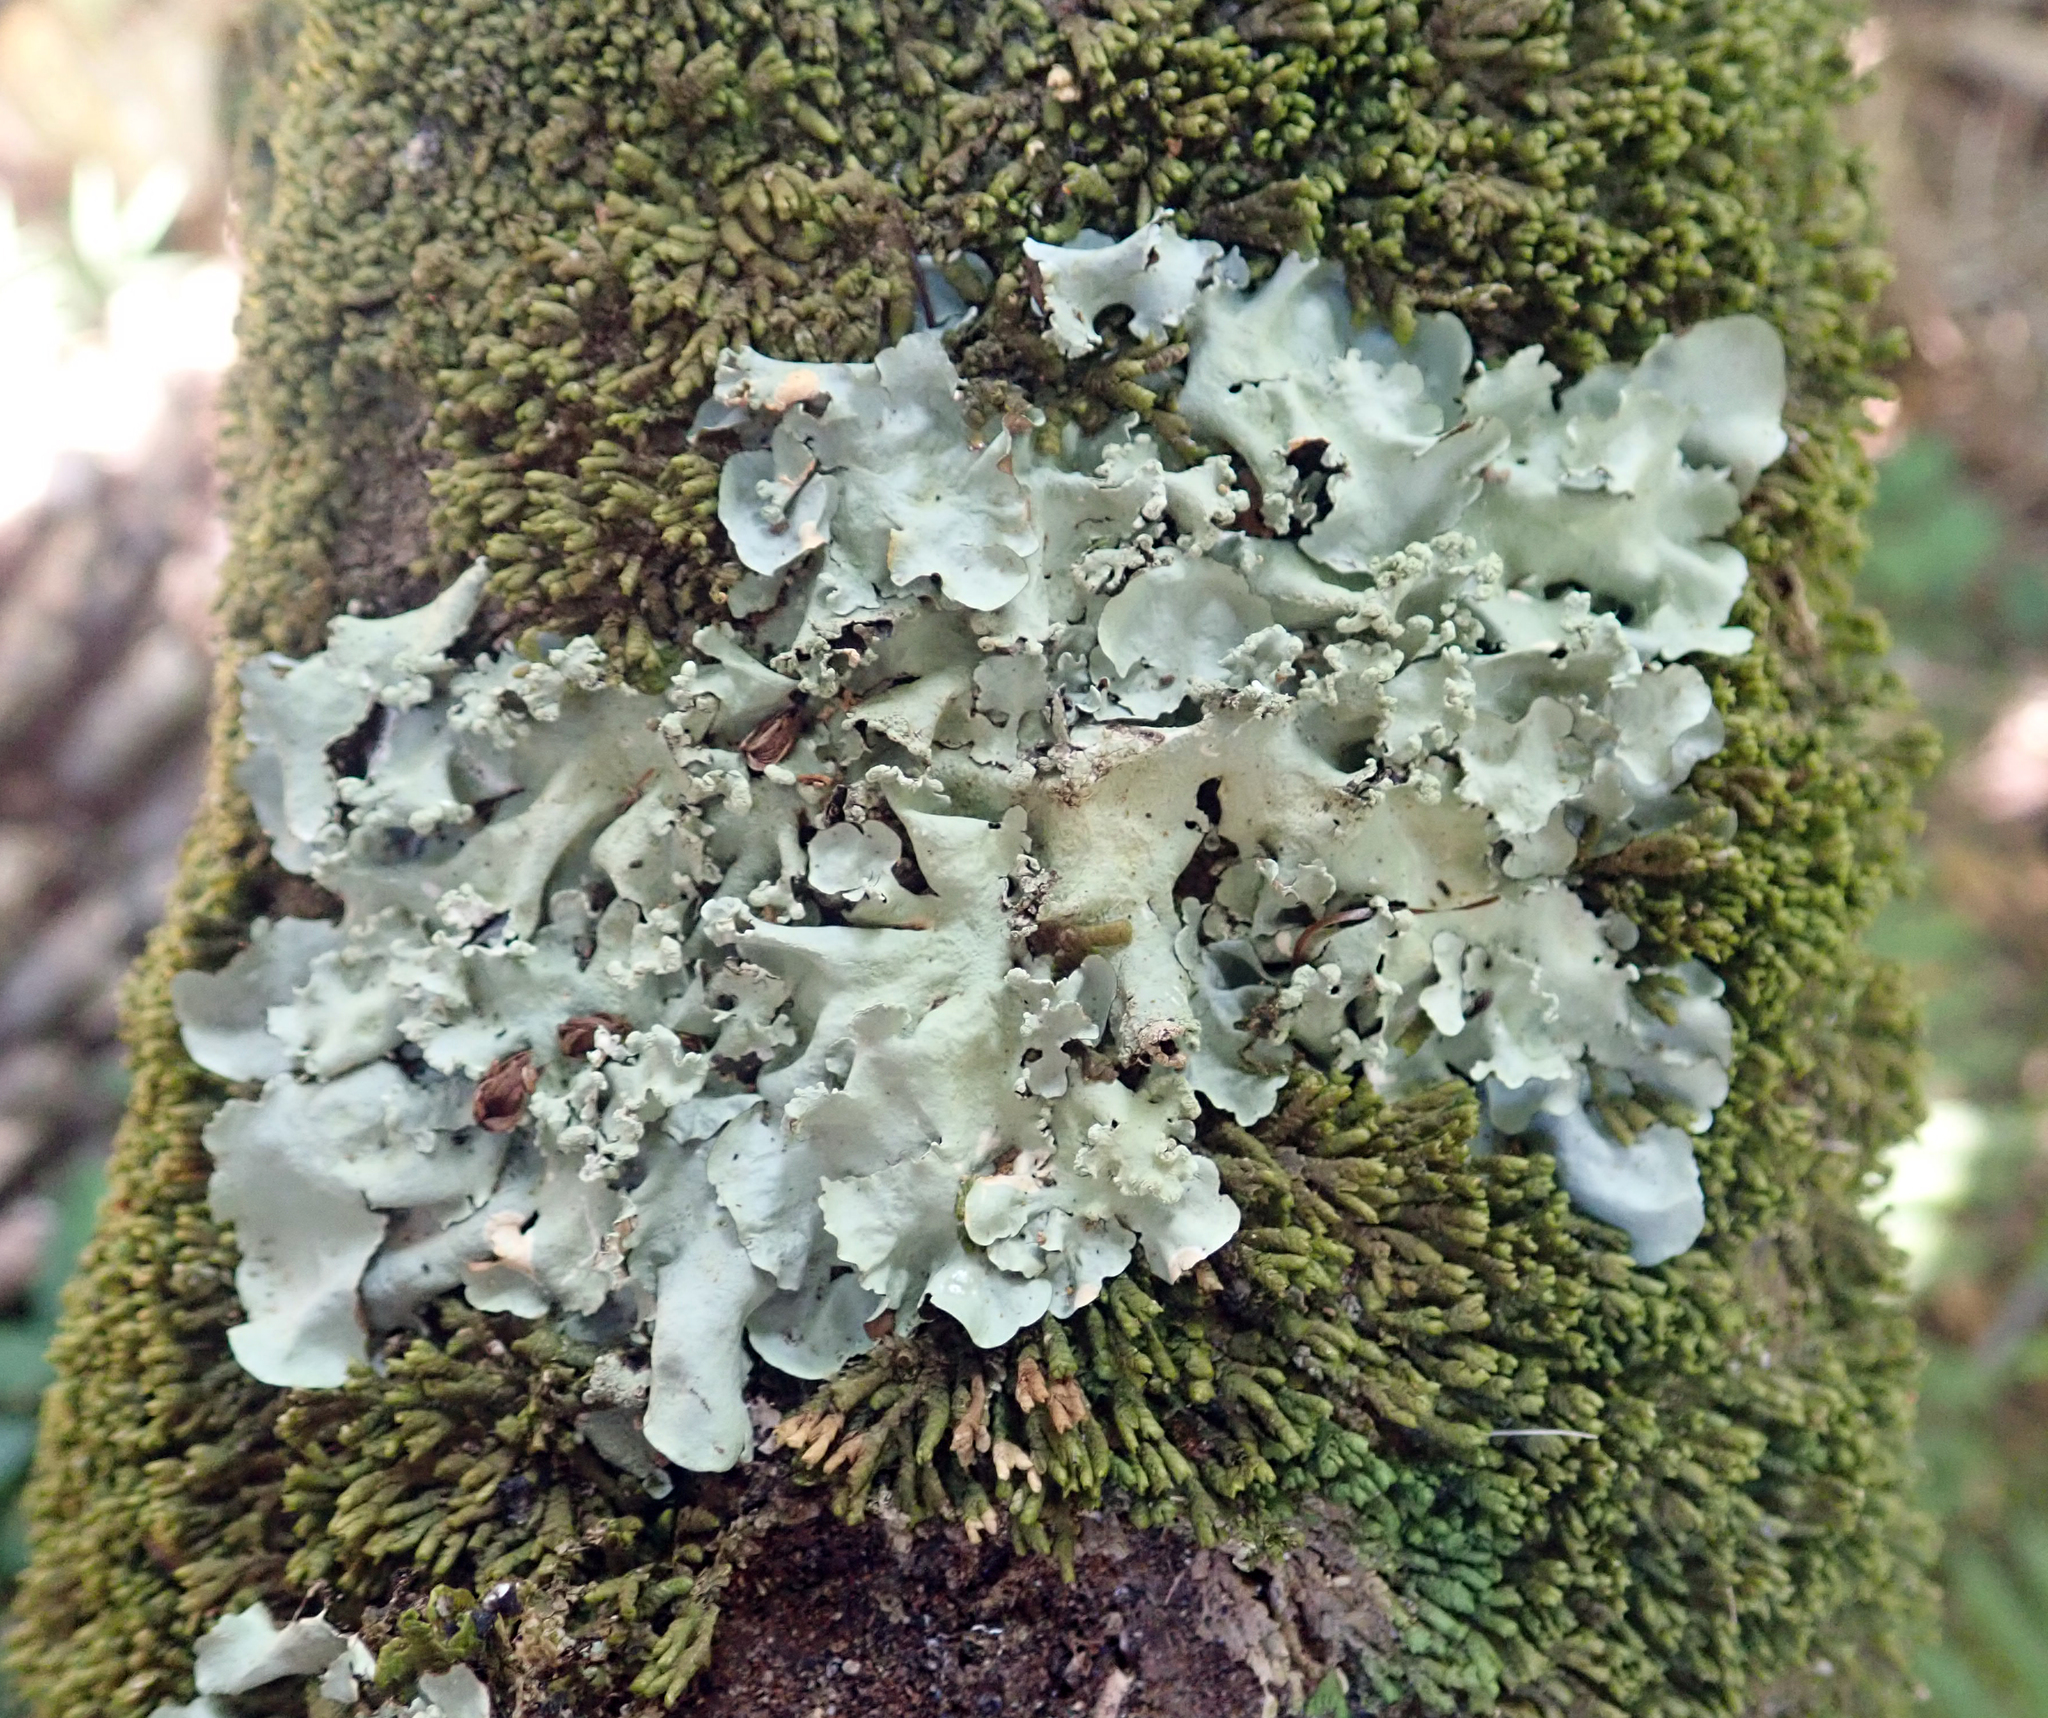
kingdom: Fungi
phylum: Ascomycota
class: Lecanoromycetes
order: Lecanorales
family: Parmeliaceae
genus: Parmotrema
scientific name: Parmotrema robustum
